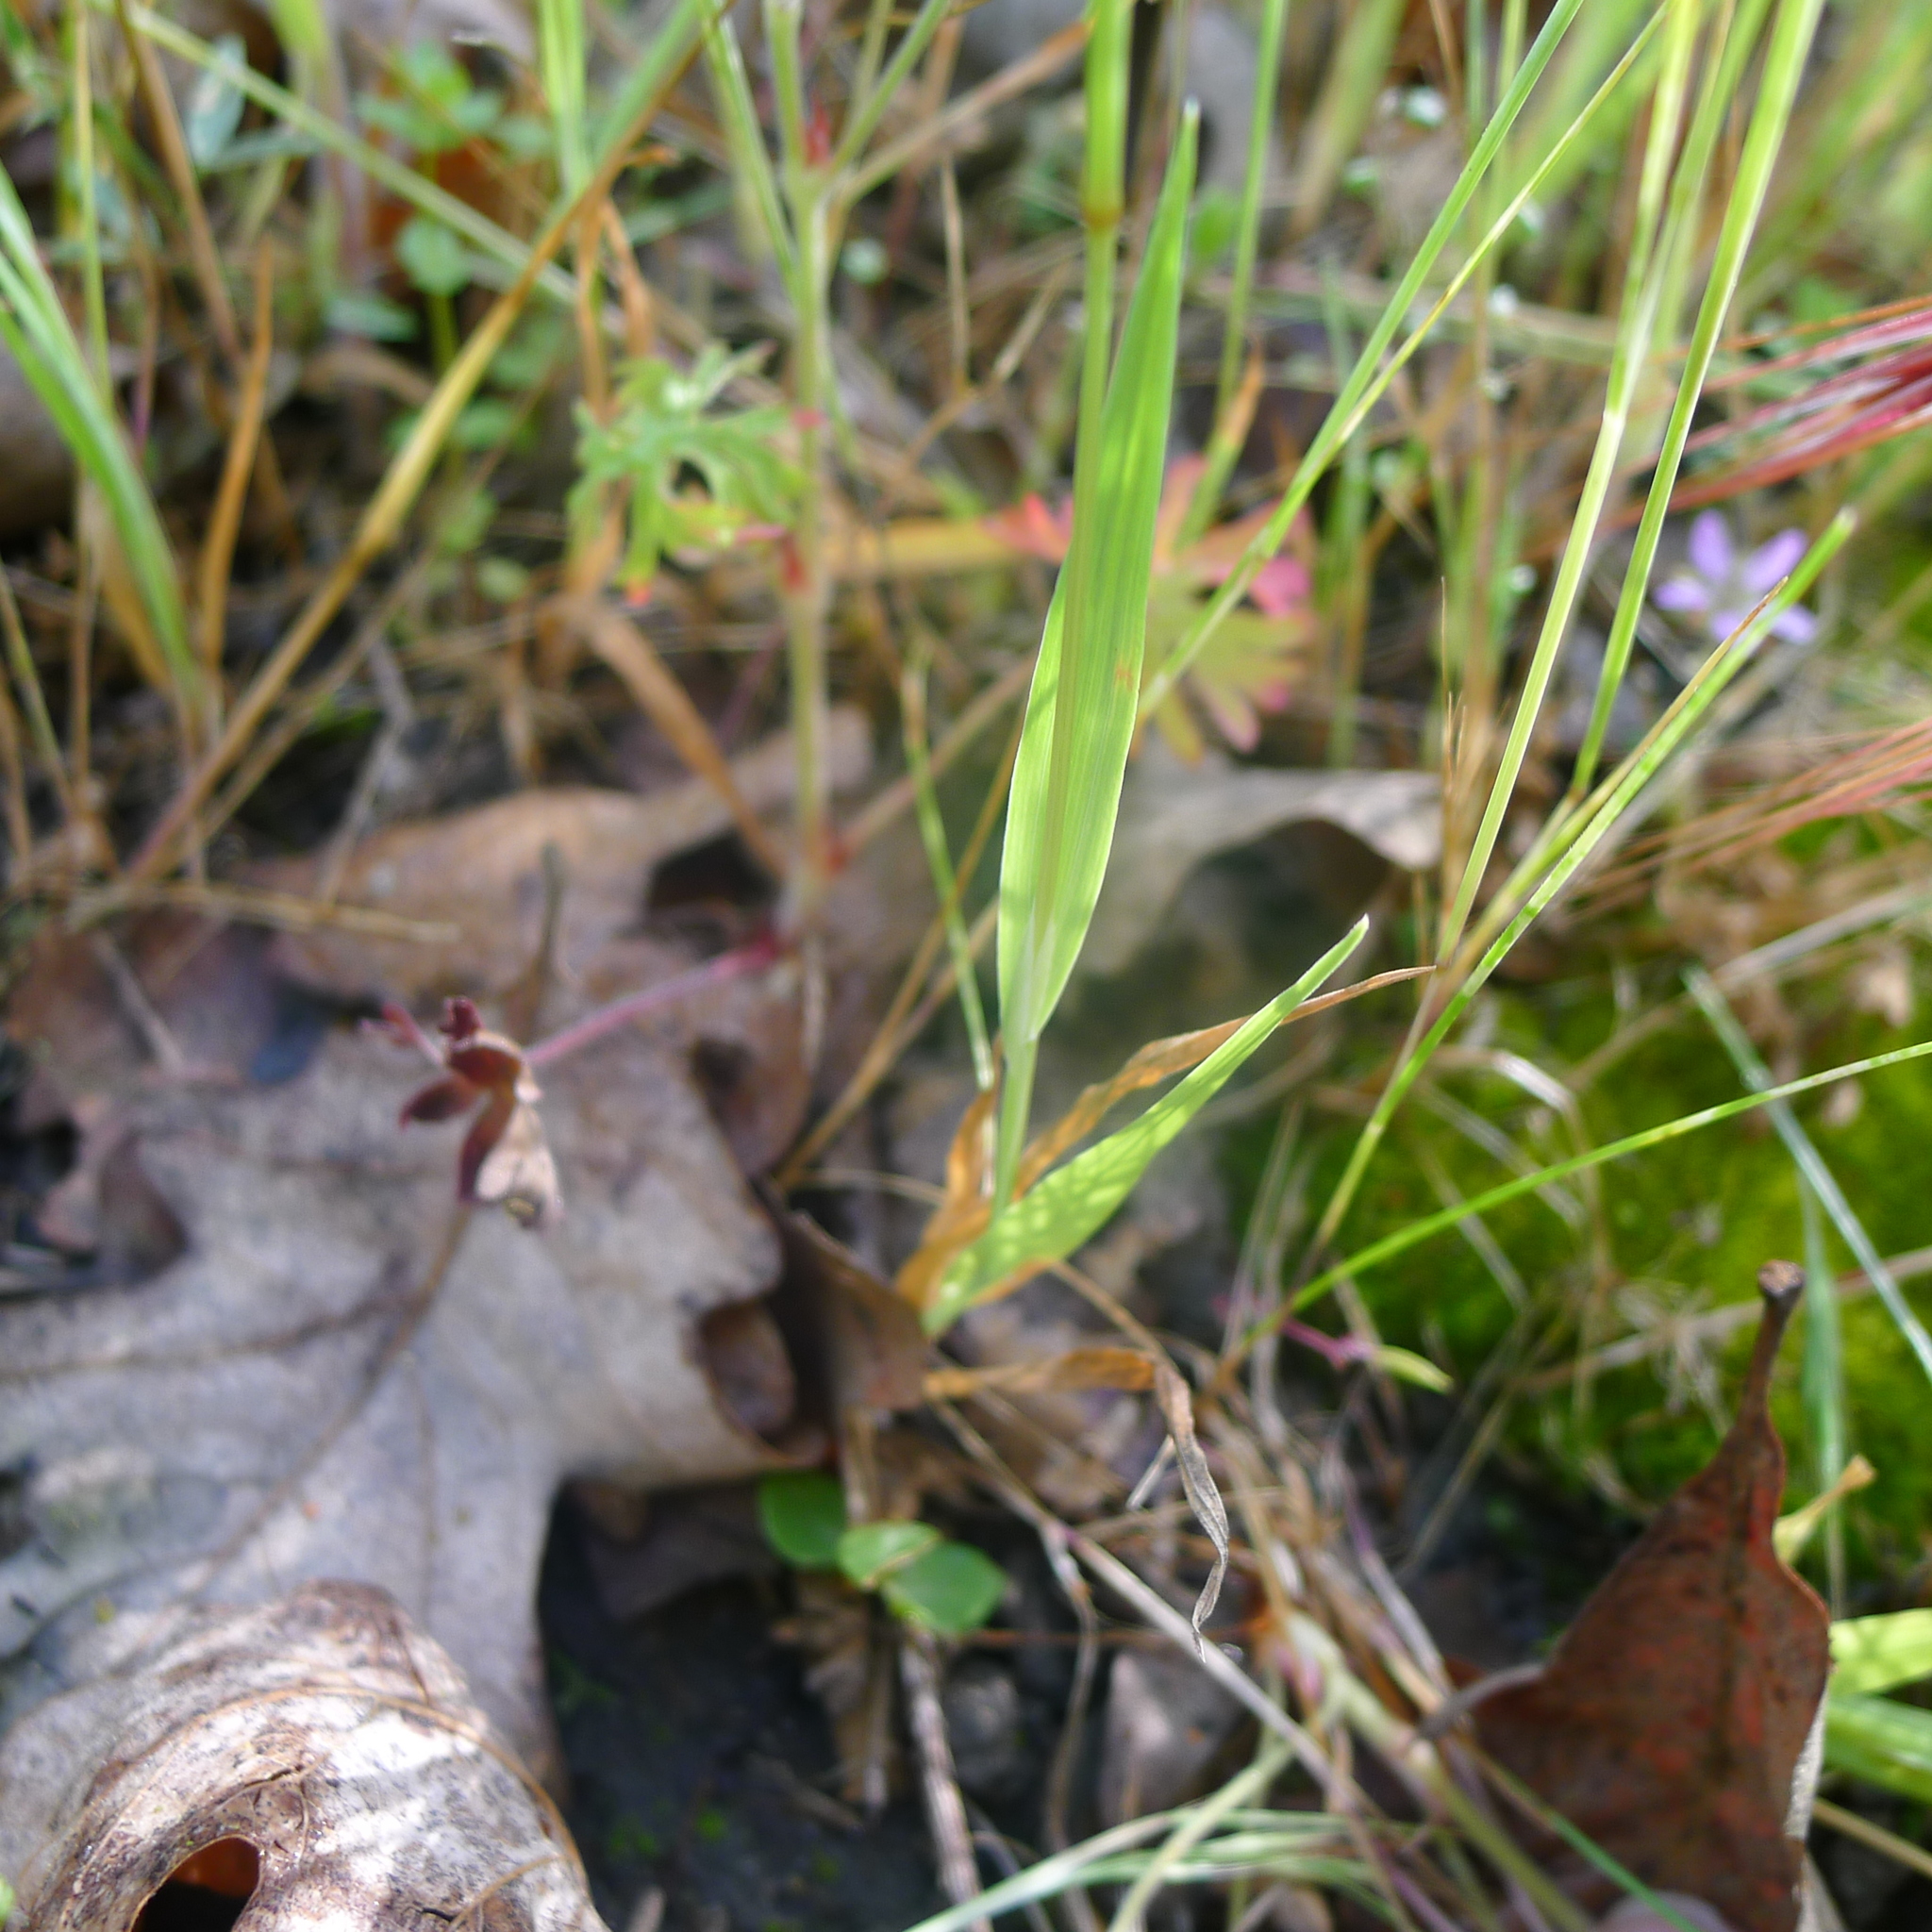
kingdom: Plantae
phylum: Tracheophyta
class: Liliopsida
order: Poales
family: Poaceae
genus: Briza
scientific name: Briza minor
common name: Lesser quaking-grass
